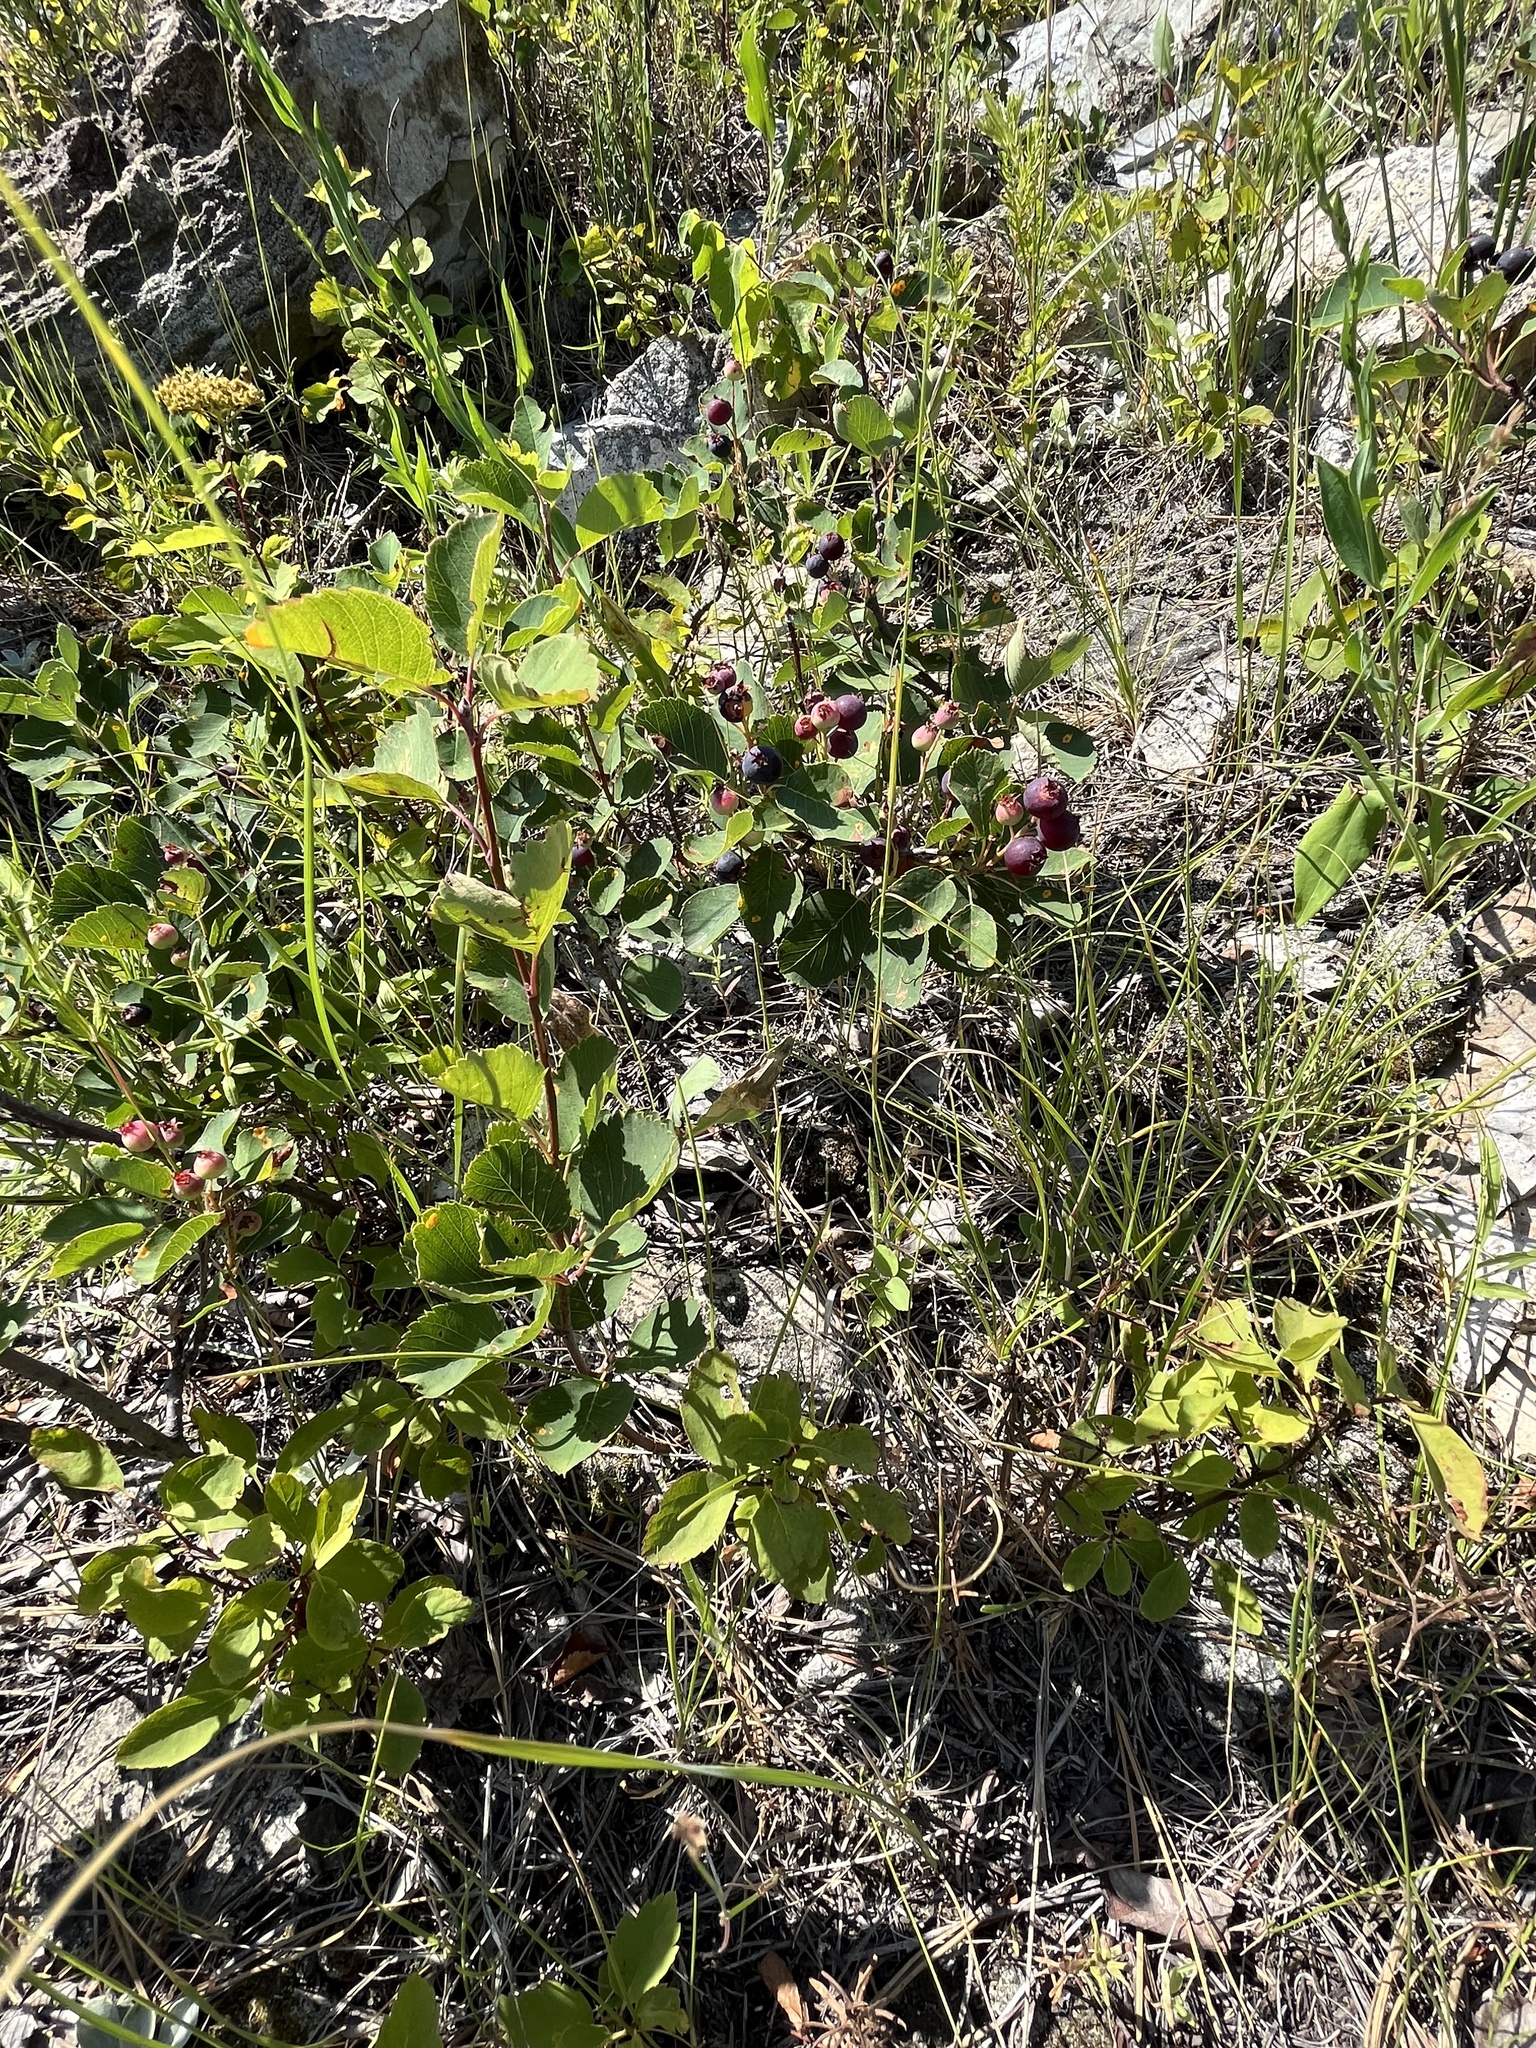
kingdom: Plantae
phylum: Tracheophyta
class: Magnoliopsida
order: Rosales
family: Rosaceae
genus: Amelanchier
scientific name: Amelanchier alnifolia
